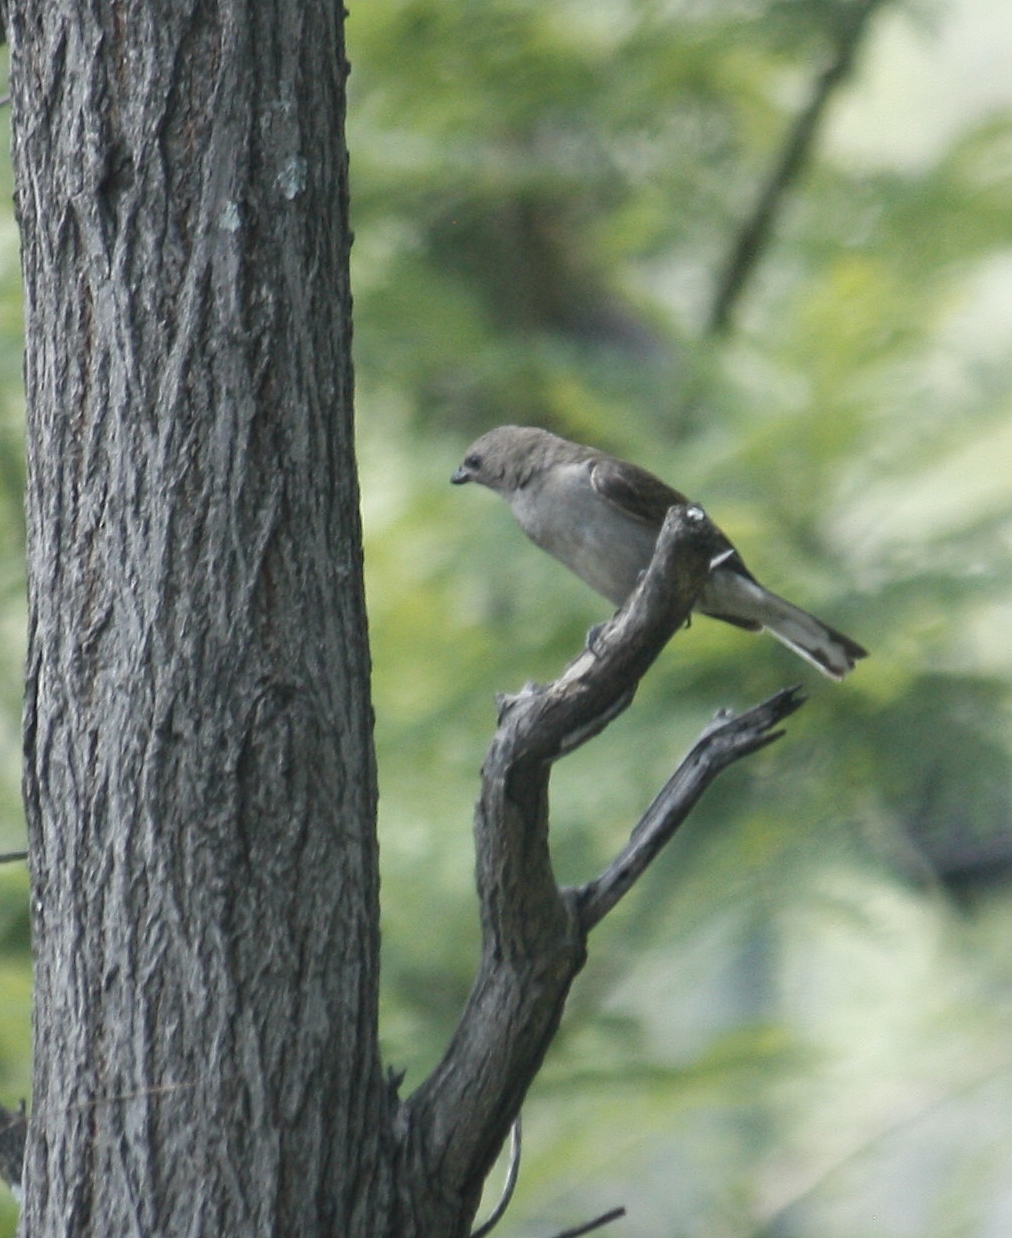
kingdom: Animalia
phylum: Chordata
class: Aves
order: Piciformes
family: Indicatoridae
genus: Indicator
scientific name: Indicator minor
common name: Lesser honeyguide
